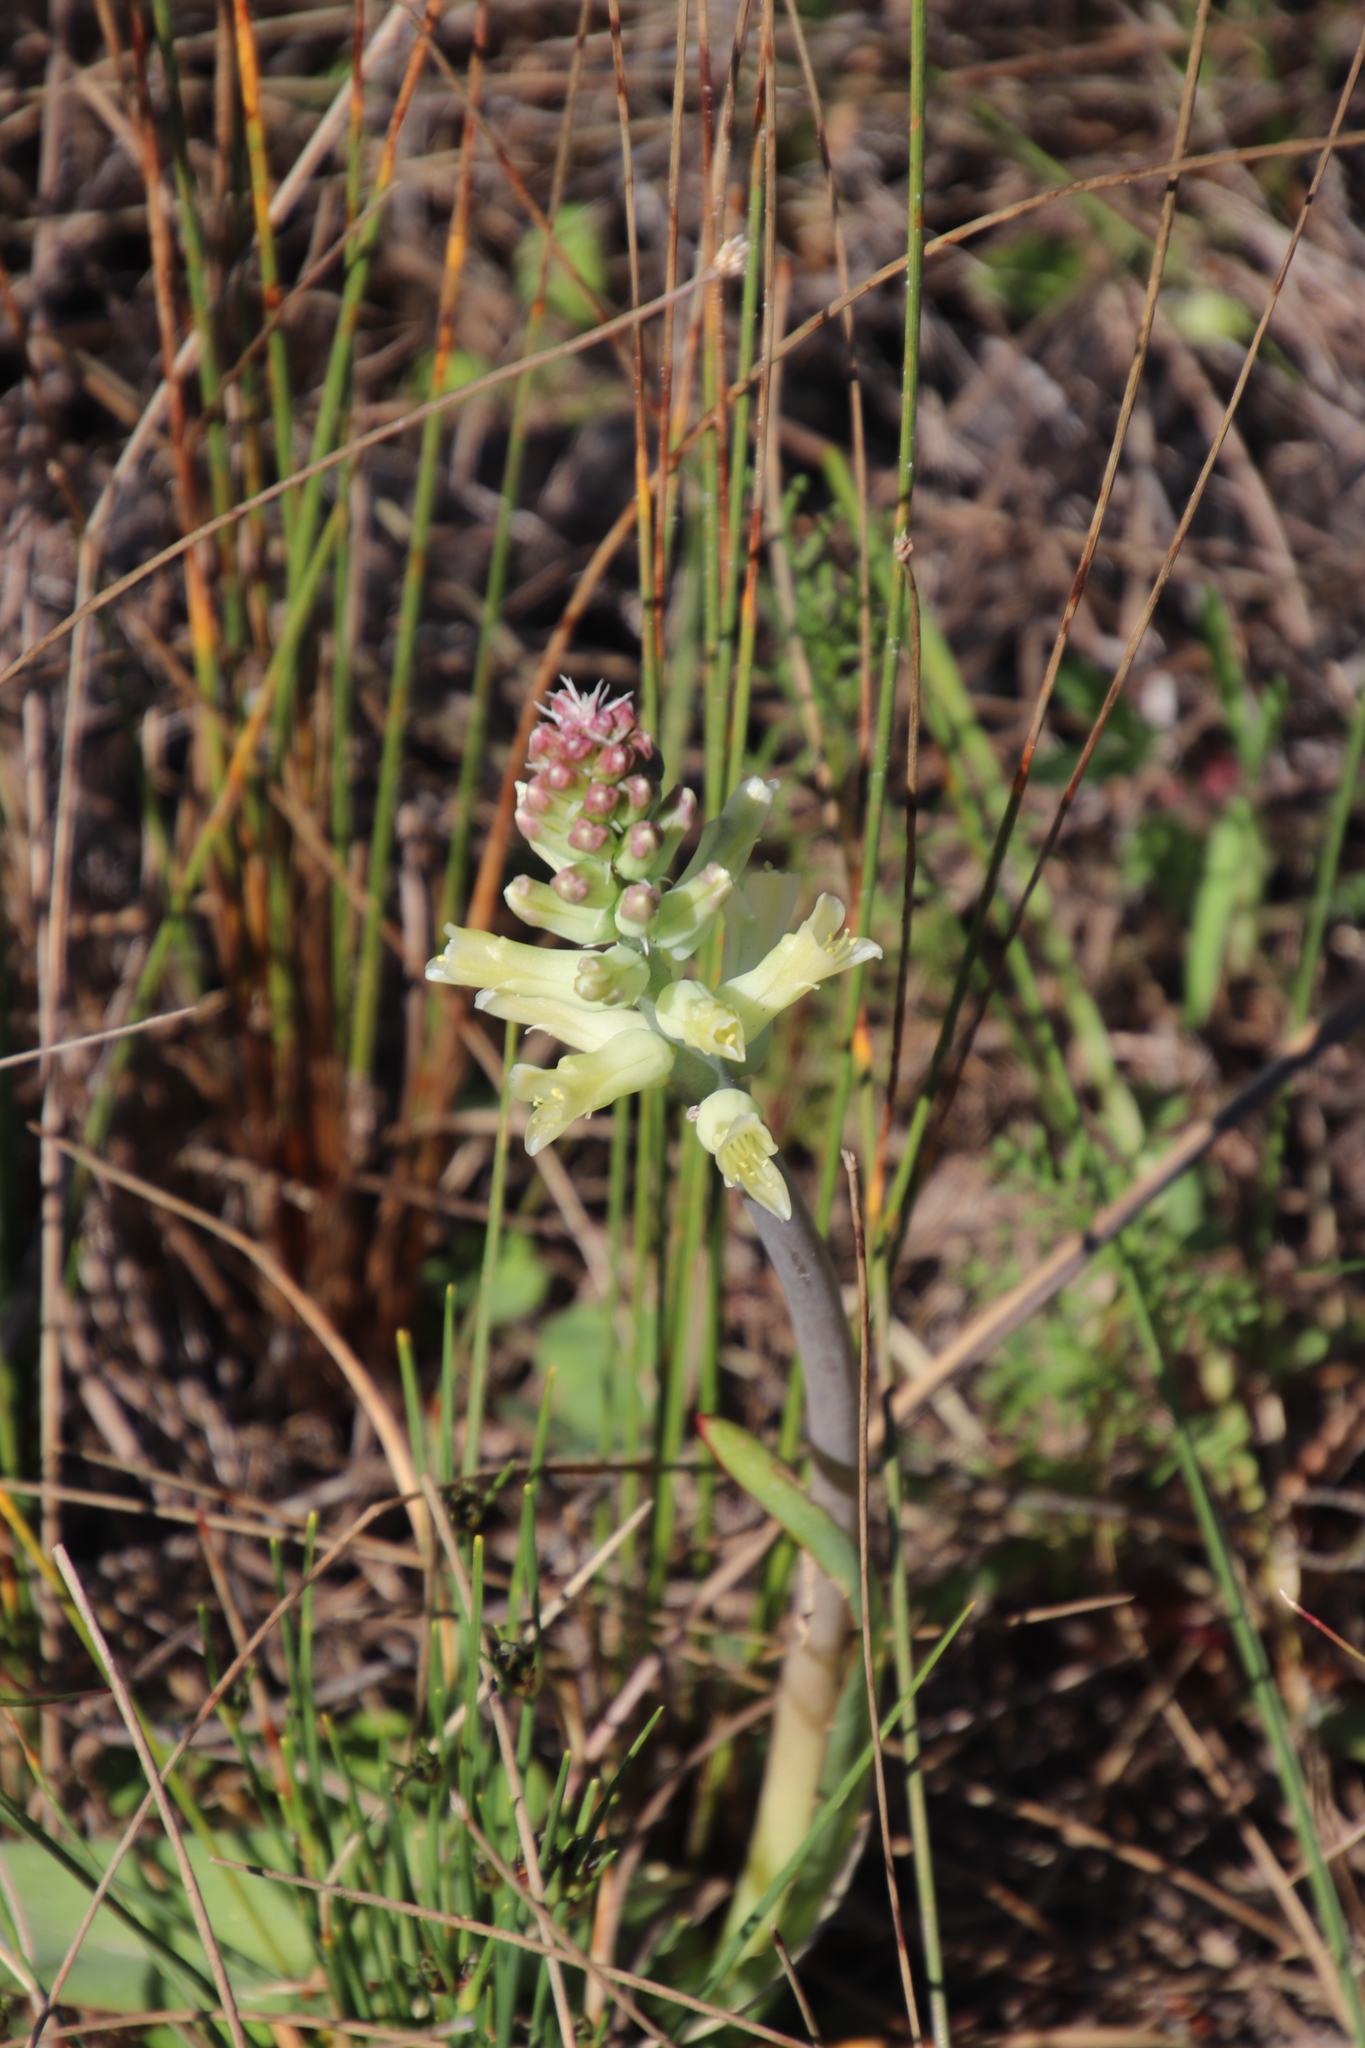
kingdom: Plantae
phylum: Tracheophyta
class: Liliopsida
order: Asparagales
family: Asparagaceae
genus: Lachenalia
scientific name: Lachenalia orchioides
